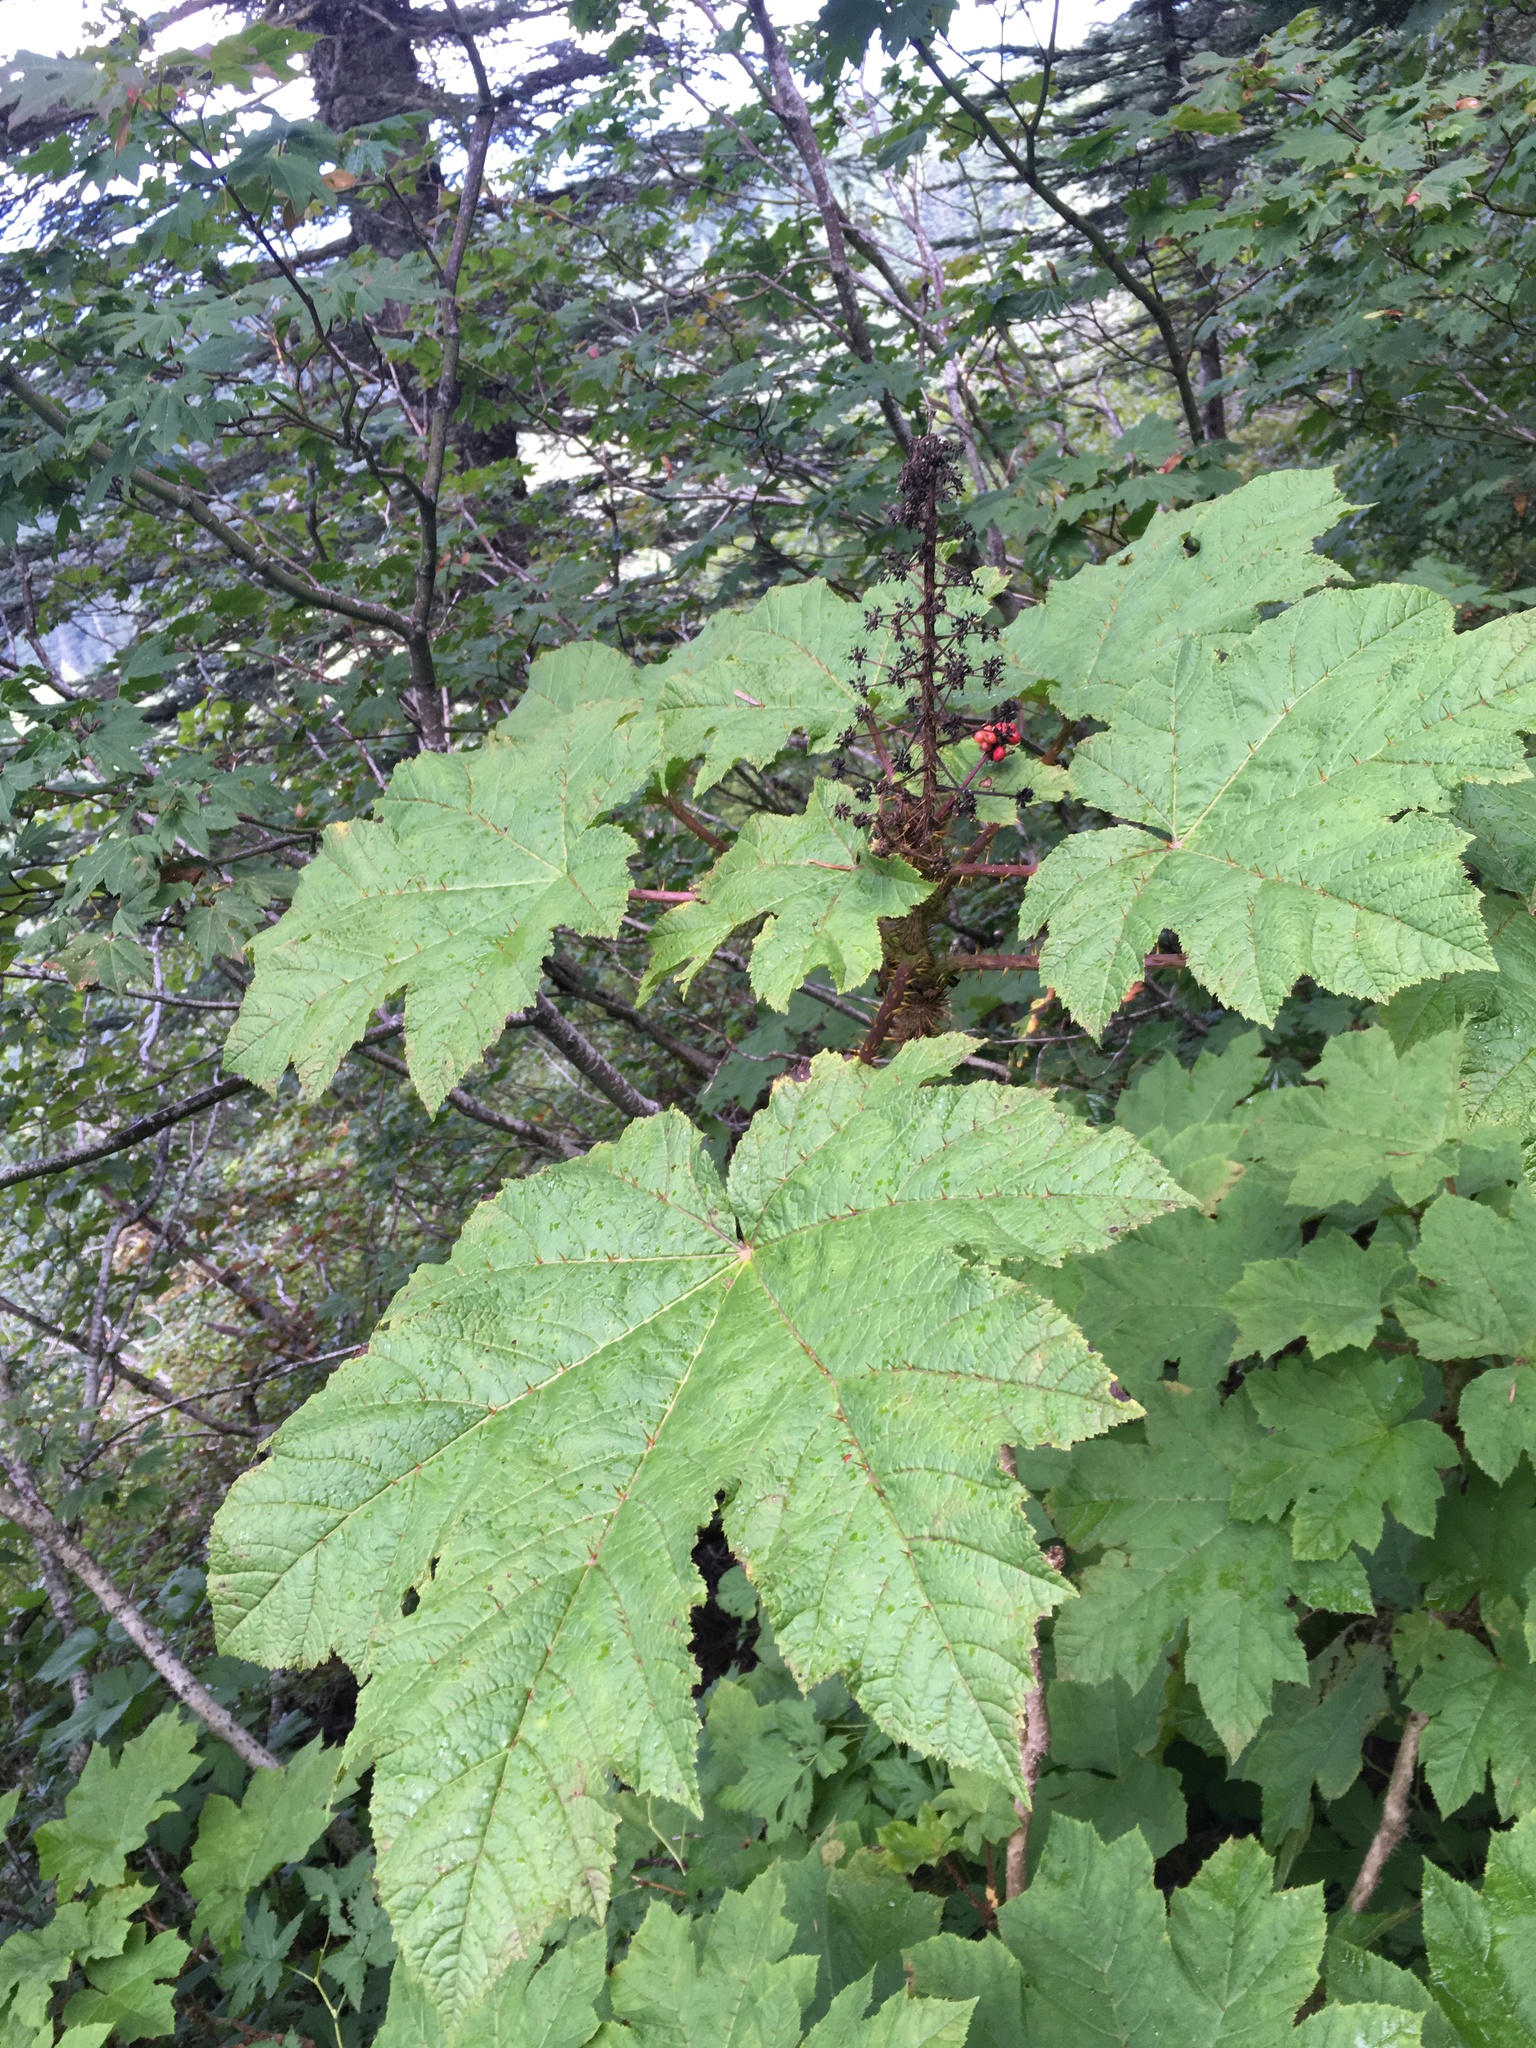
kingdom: Plantae
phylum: Tracheophyta
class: Magnoliopsida
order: Apiales
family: Araliaceae
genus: Oplopanax
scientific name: Oplopanax horridus
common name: Devil's walking-stick
